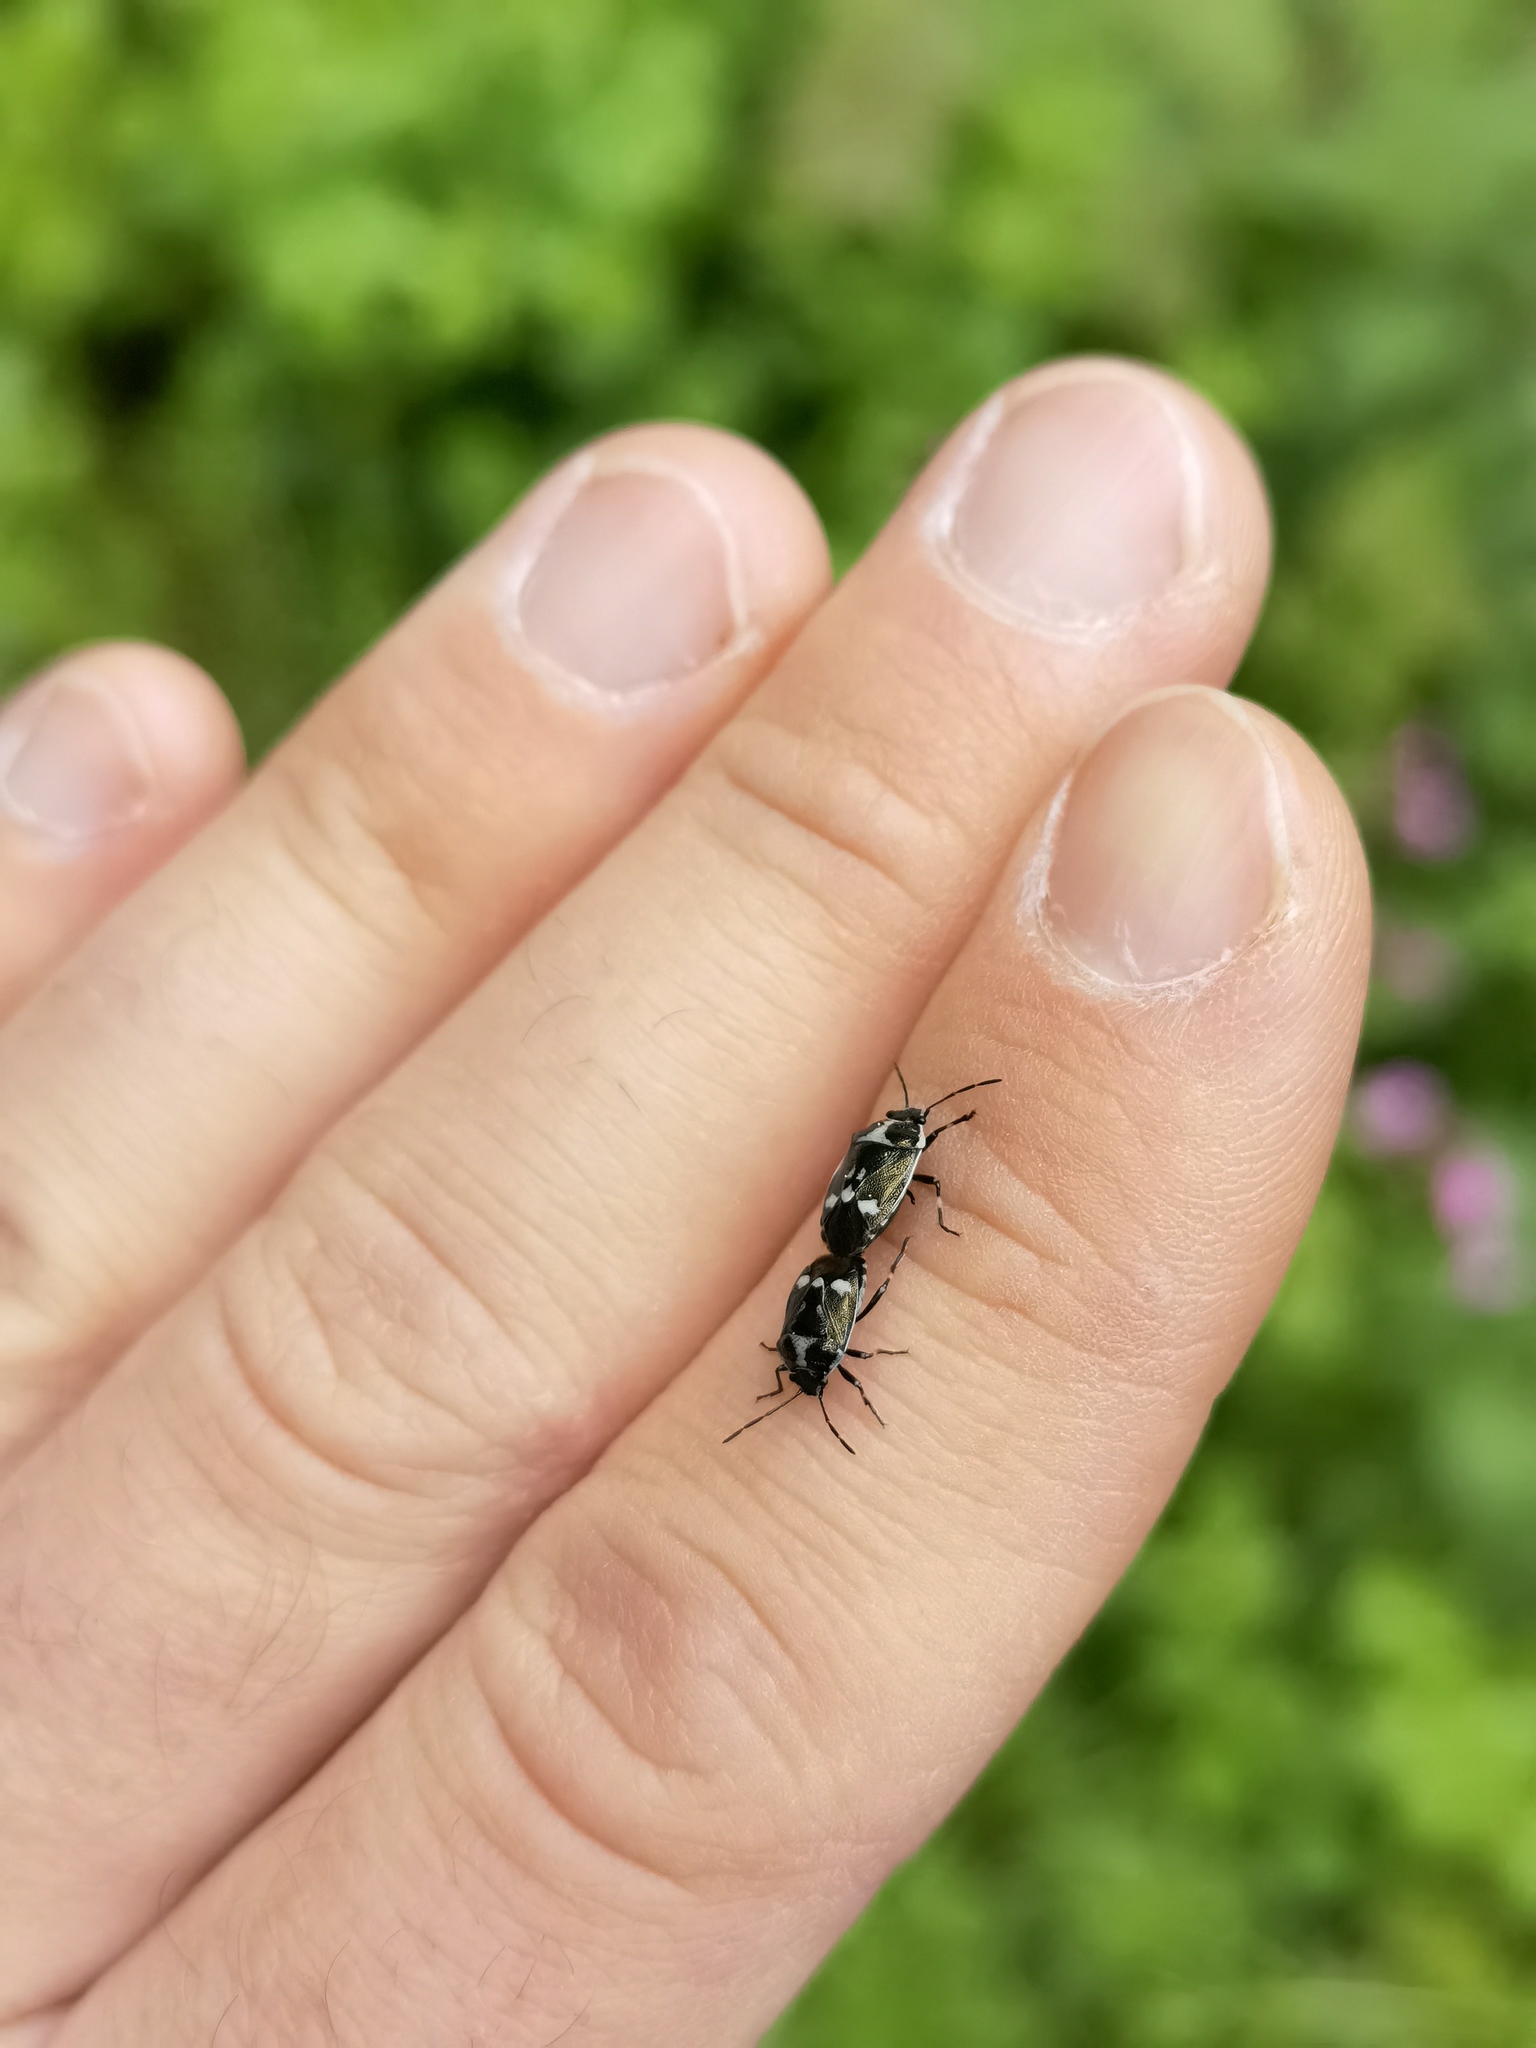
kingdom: Animalia
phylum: Arthropoda
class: Insecta
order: Hemiptera
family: Pentatomidae
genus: Eurydema
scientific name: Eurydema oleracea
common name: Cabbage bug
